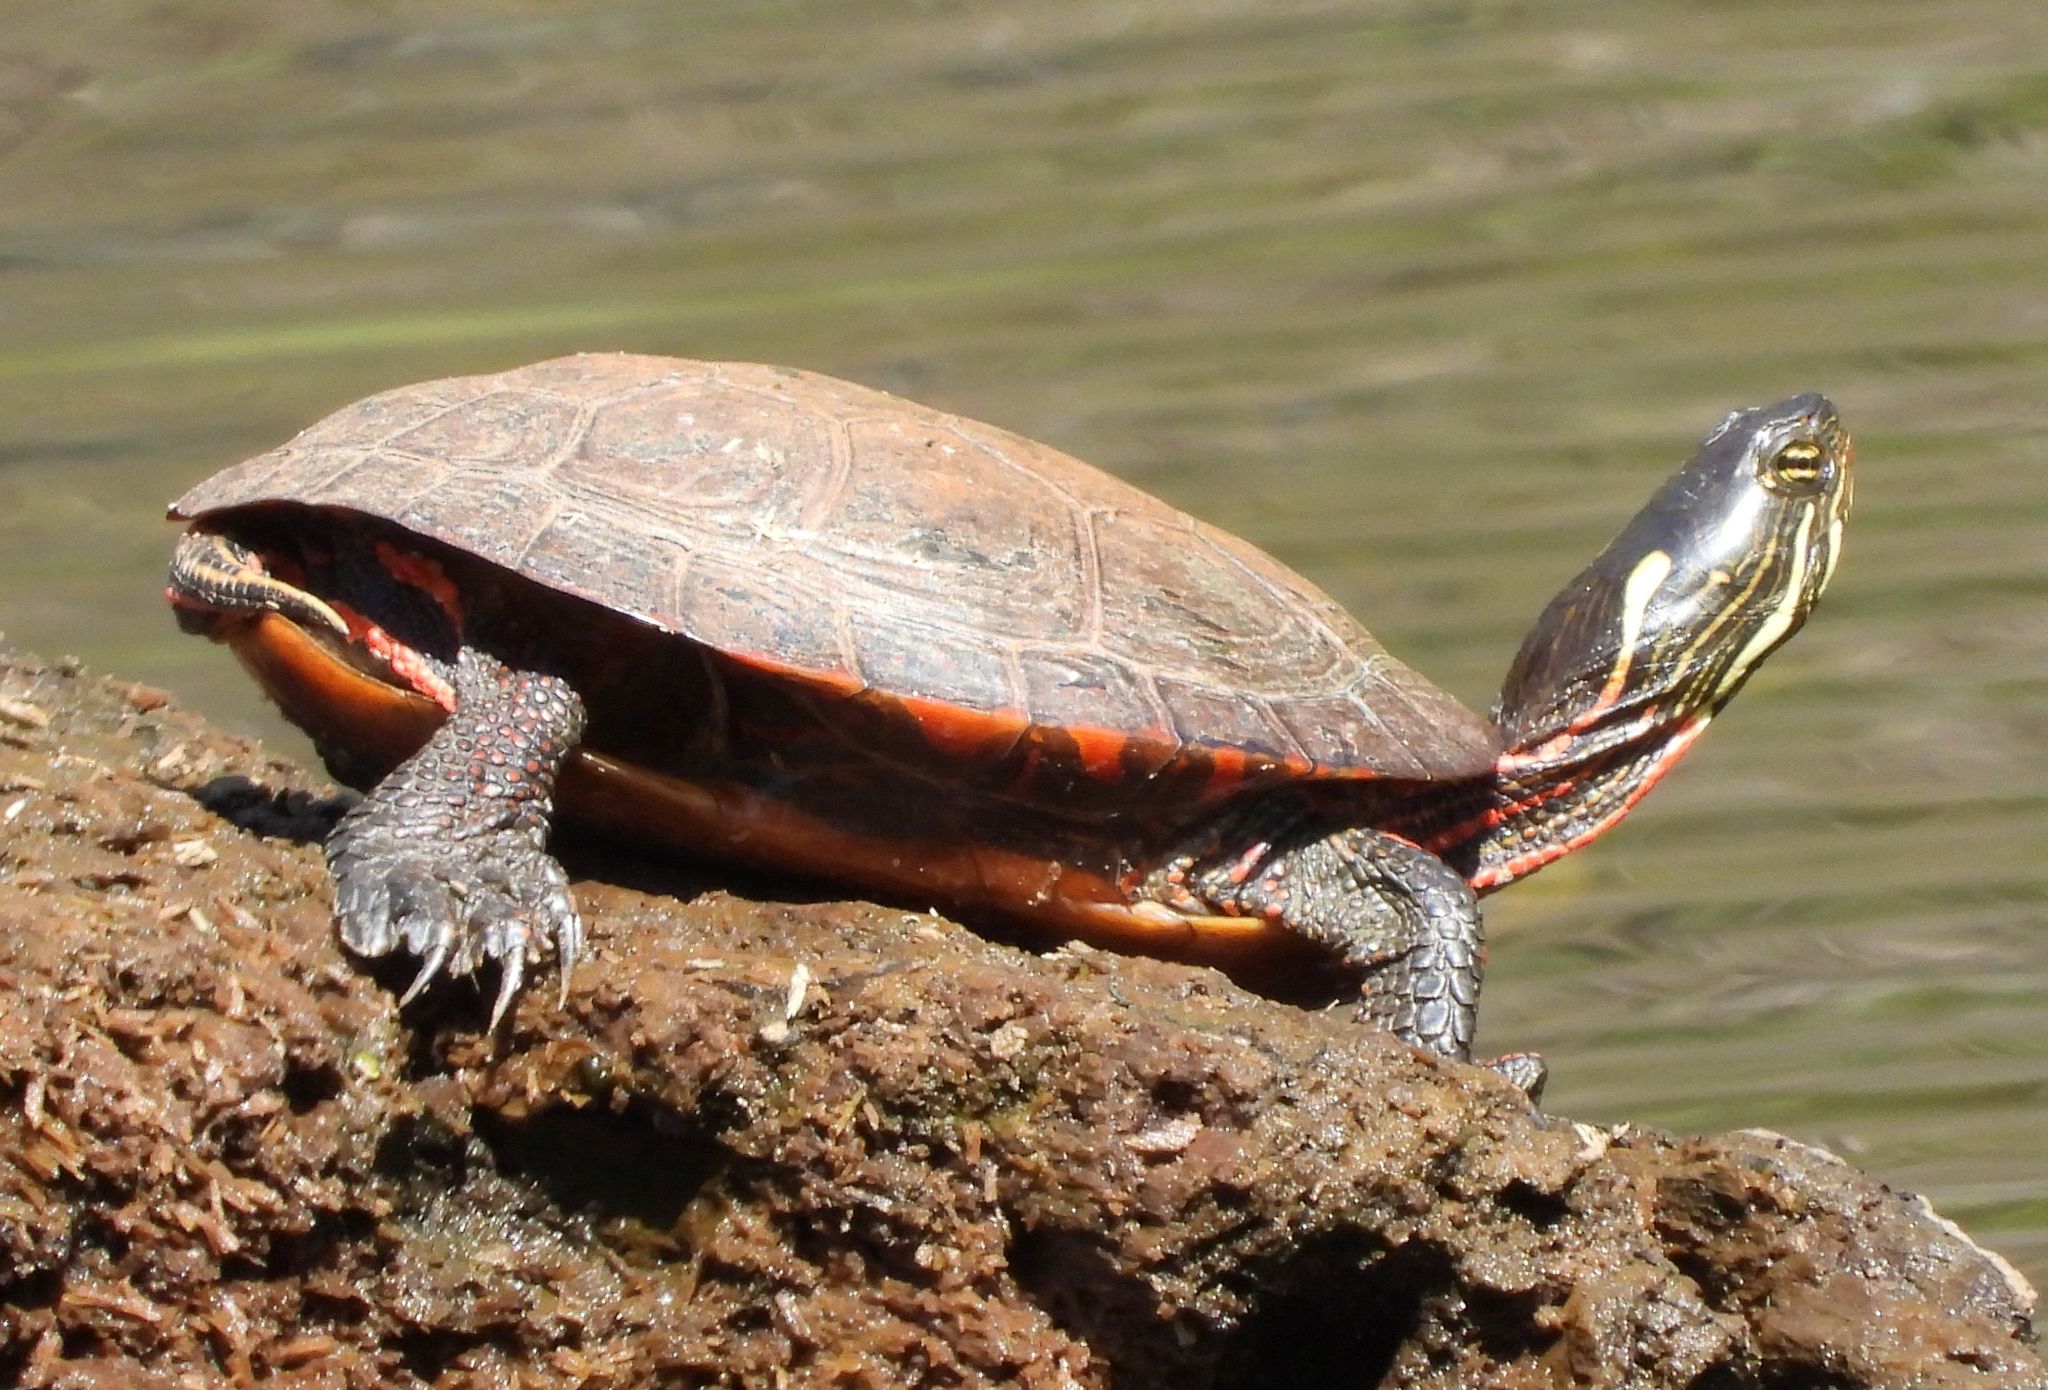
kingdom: Animalia
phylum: Chordata
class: Testudines
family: Emydidae
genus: Chrysemys
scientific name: Chrysemys picta
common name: Painted turtle
